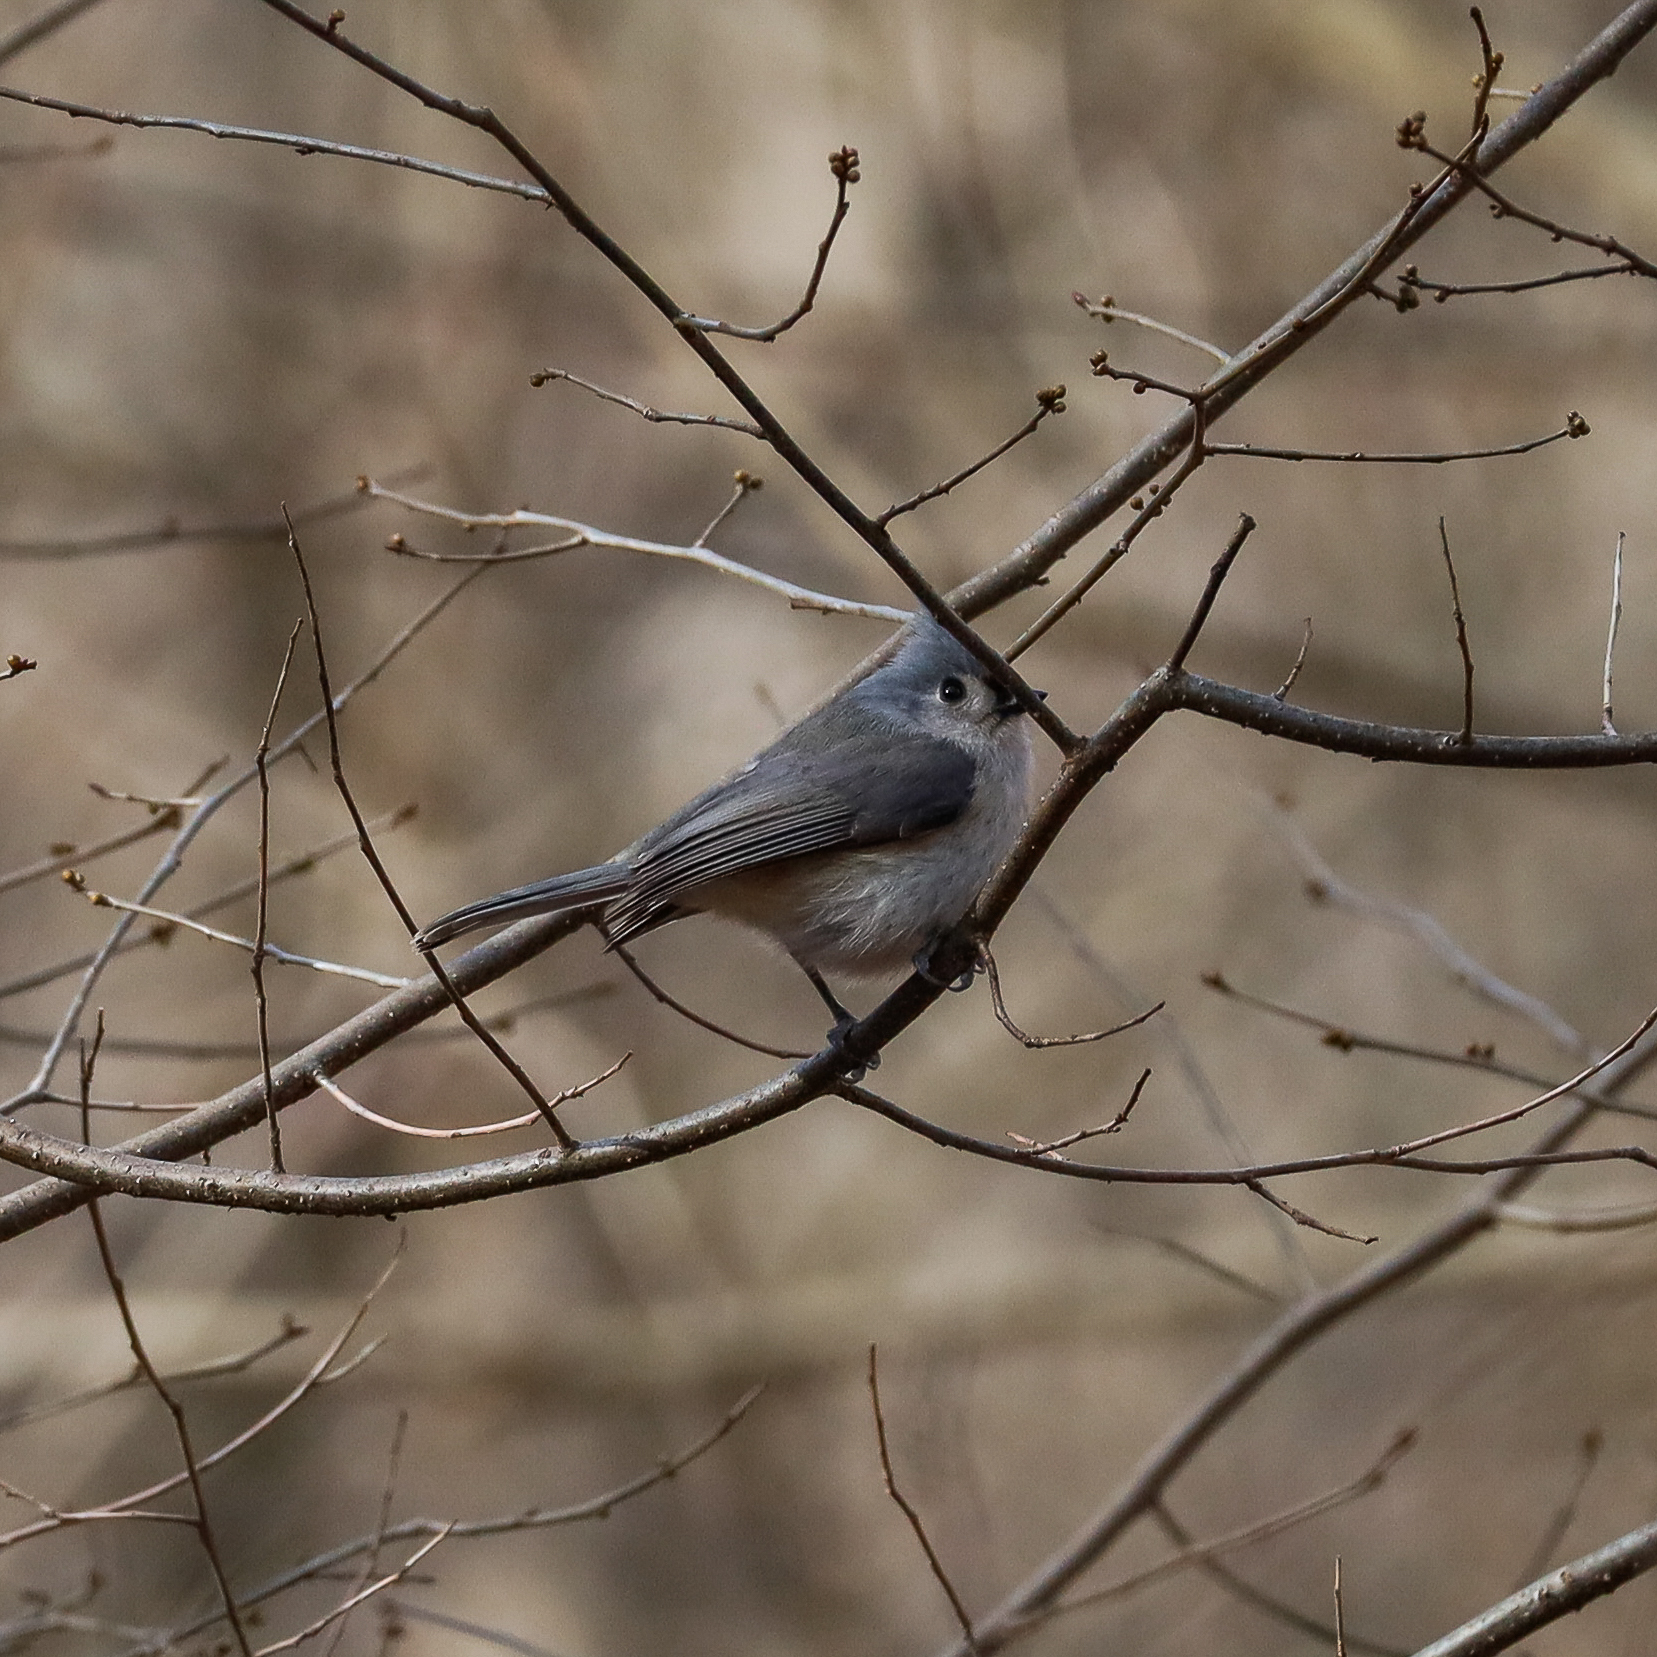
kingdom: Animalia
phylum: Chordata
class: Aves
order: Passeriformes
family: Paridae
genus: Baeolophus
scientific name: Baeolophus bicolor
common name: Tufted titmouse
